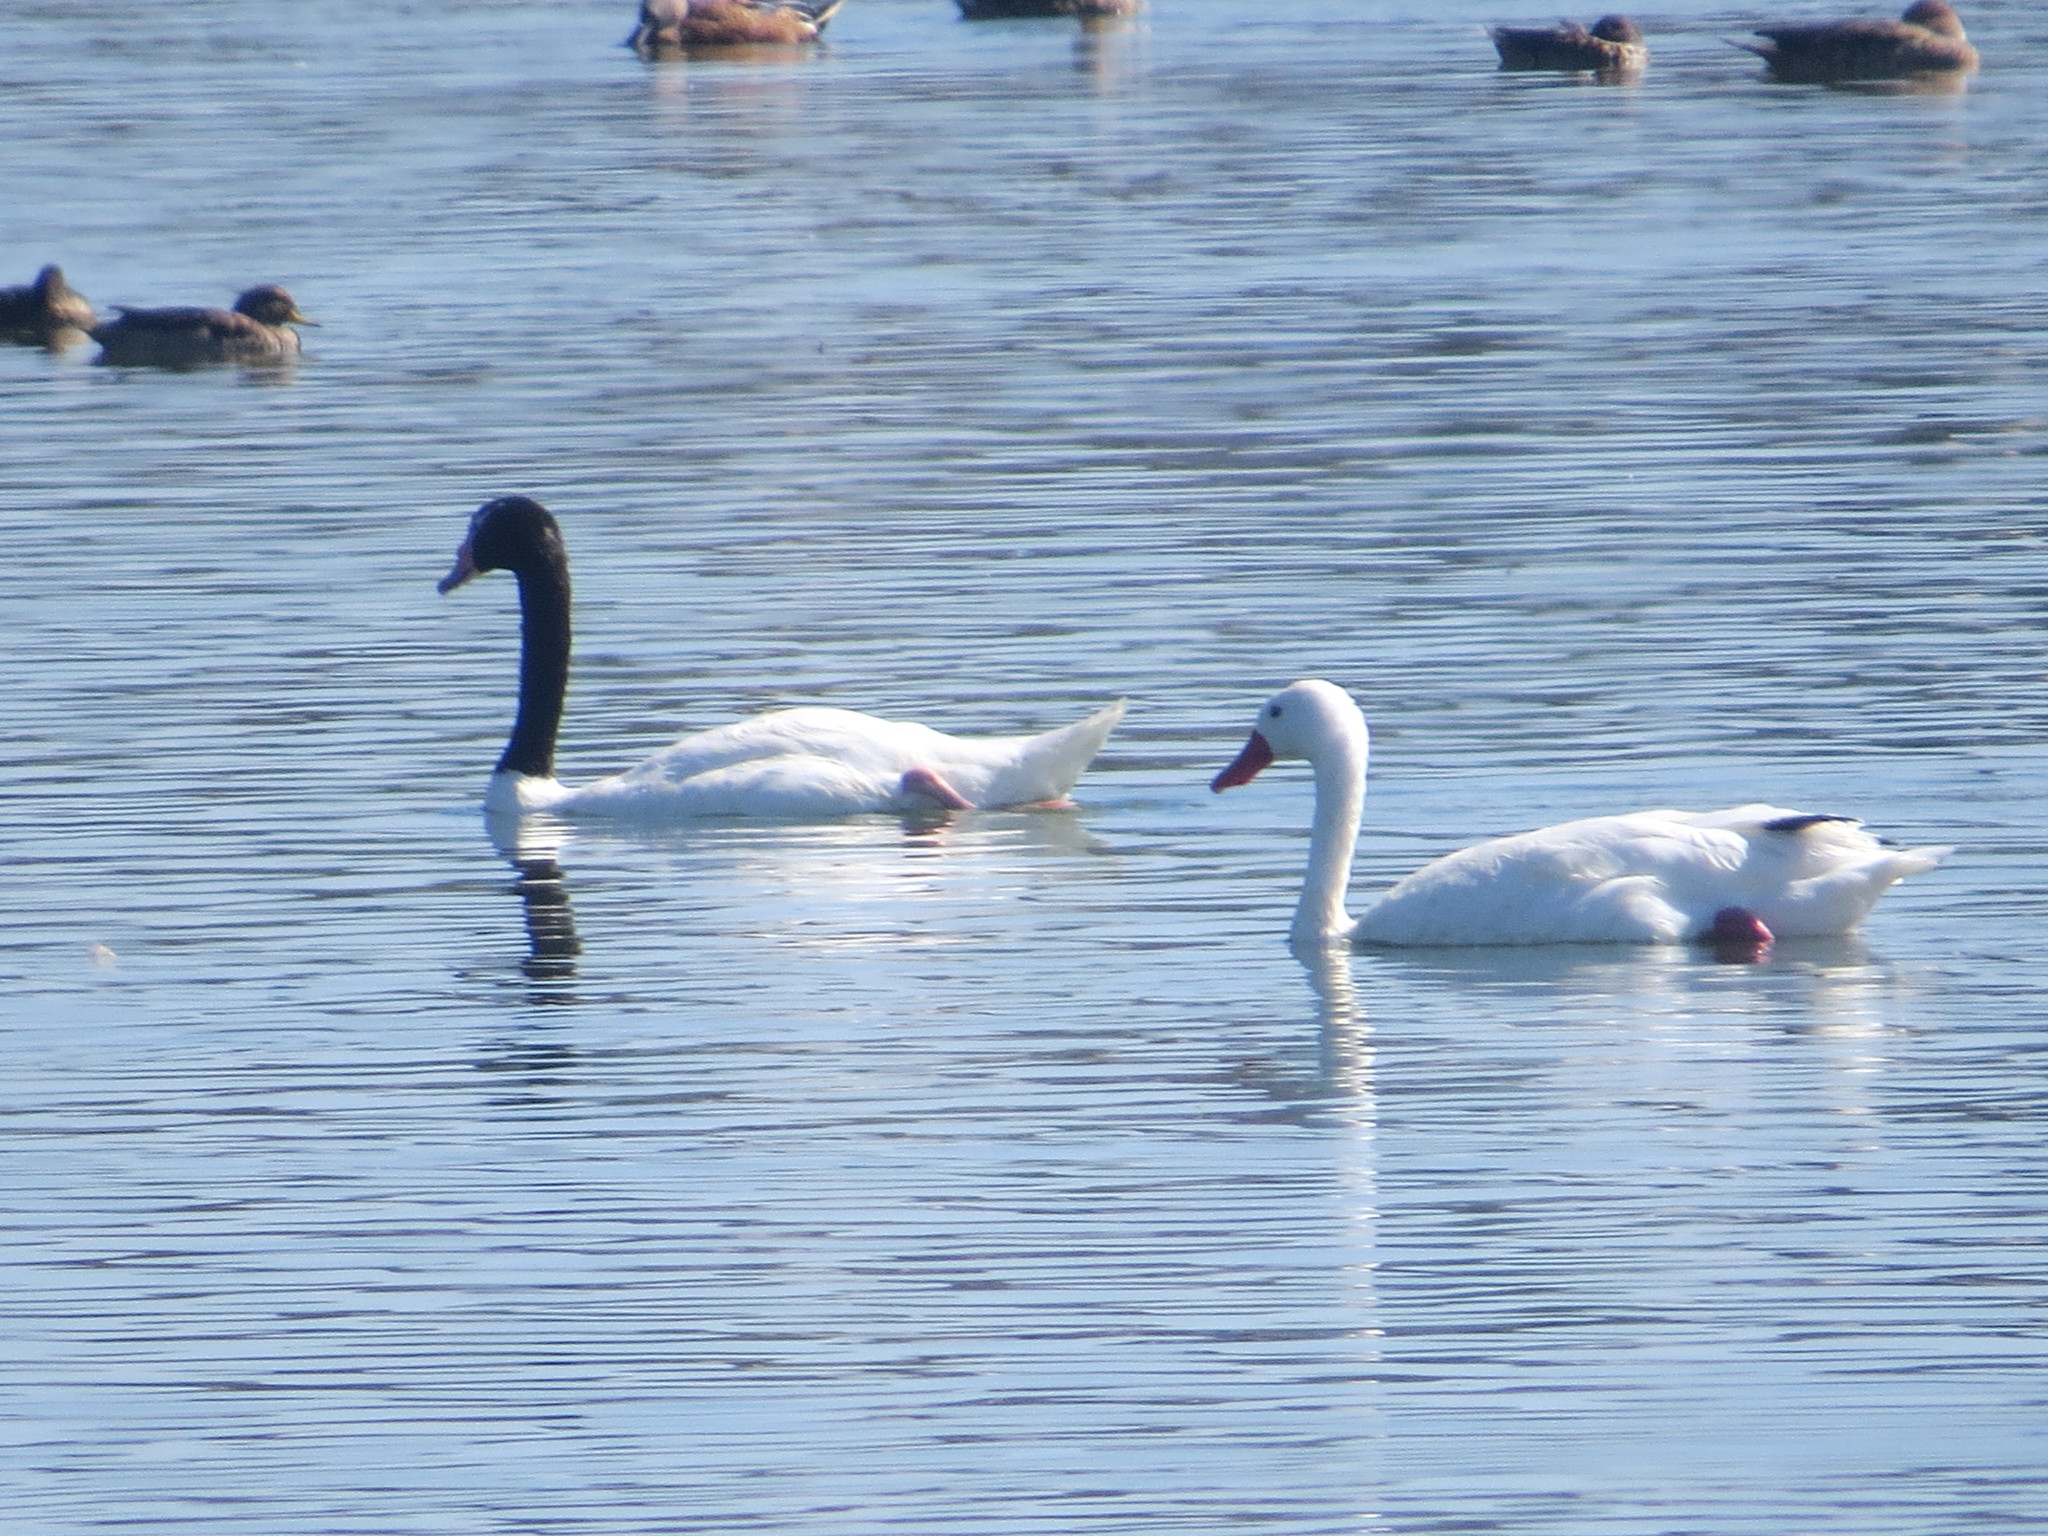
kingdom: Animalia
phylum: Chordata
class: Aves
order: Anseriformes
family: Anatidae
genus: Coscoroba
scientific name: Coscoroba coscoroba
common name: Coscoroba swan
